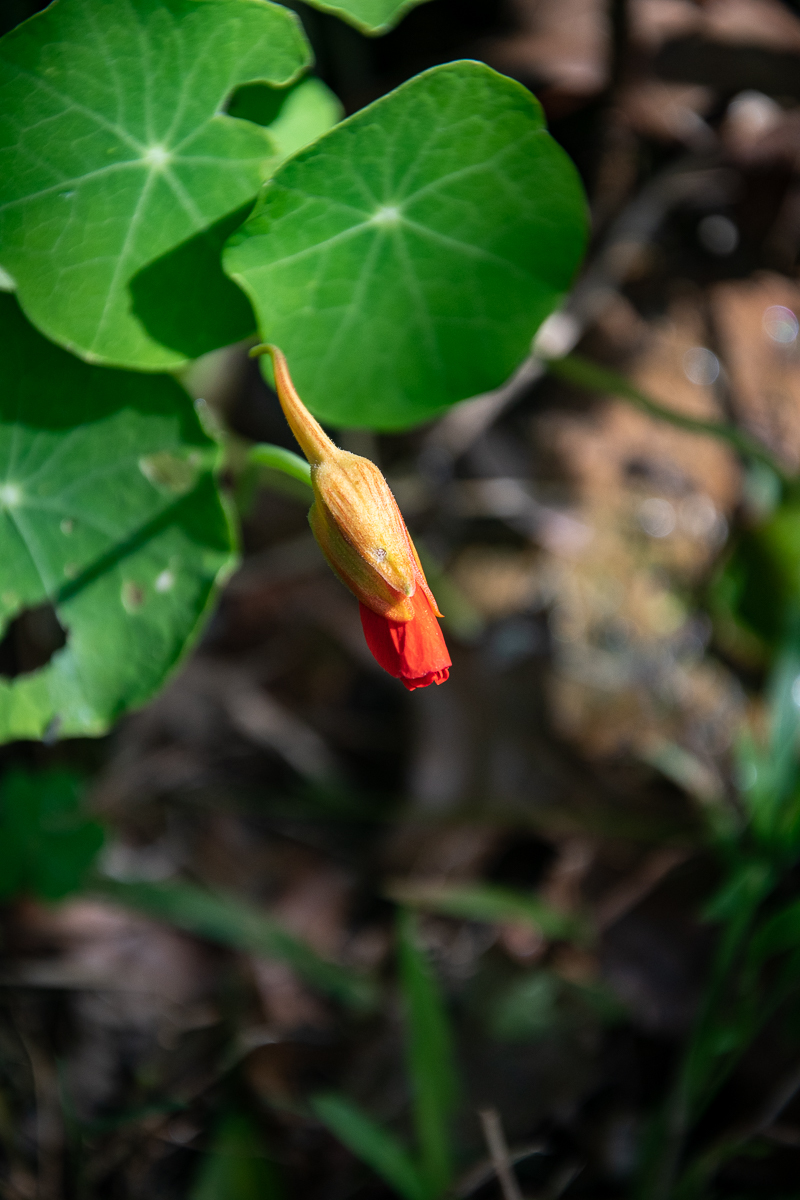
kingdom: Plantae
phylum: Tracheophyta
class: Magnoliopsida
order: Brassicales
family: Tropaeolaceae
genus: Tropaeolum
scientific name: Tropaeolum majus
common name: Nasturtium
